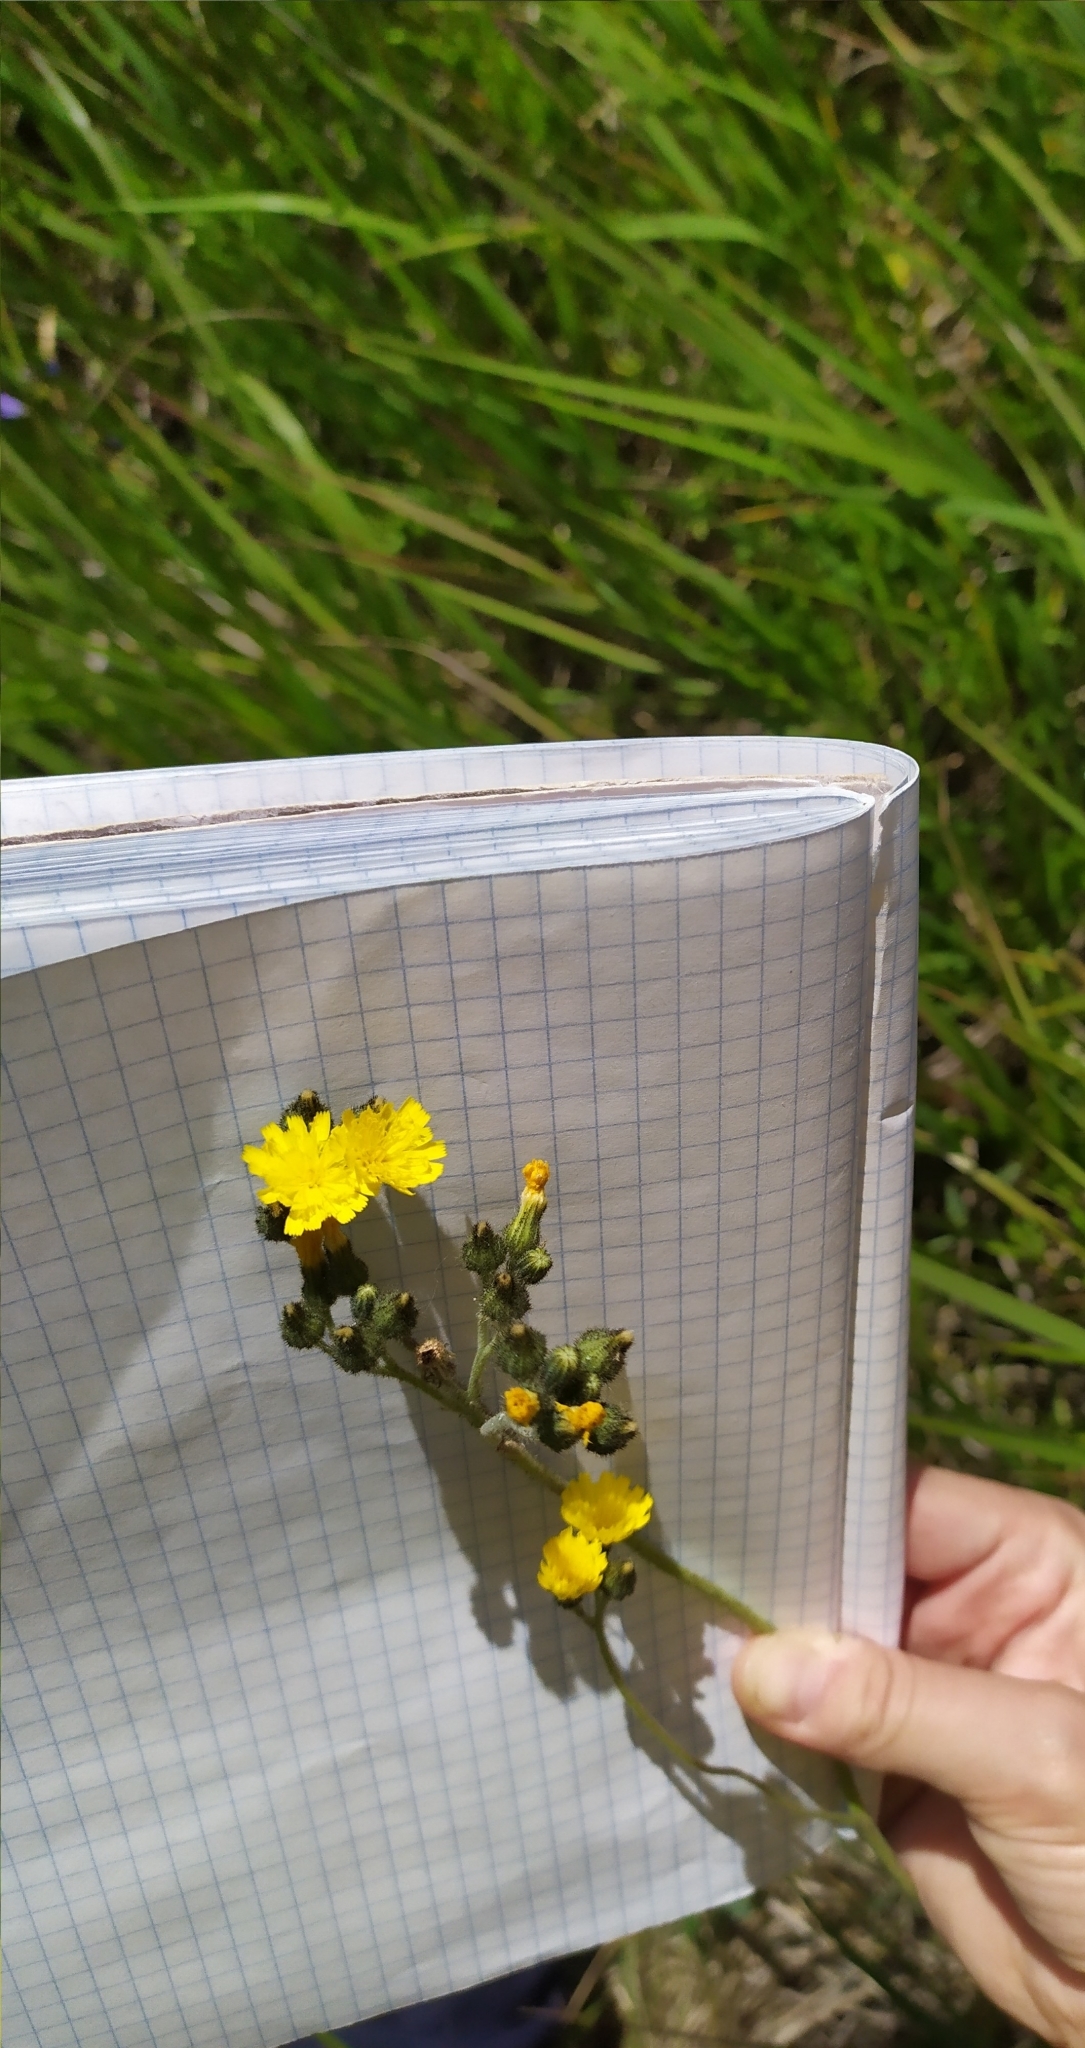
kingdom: Plantae
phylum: Tracheophyta
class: Magnoliopsida
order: Asterales
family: Asteraceae
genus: Pilosella
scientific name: Pilosella
